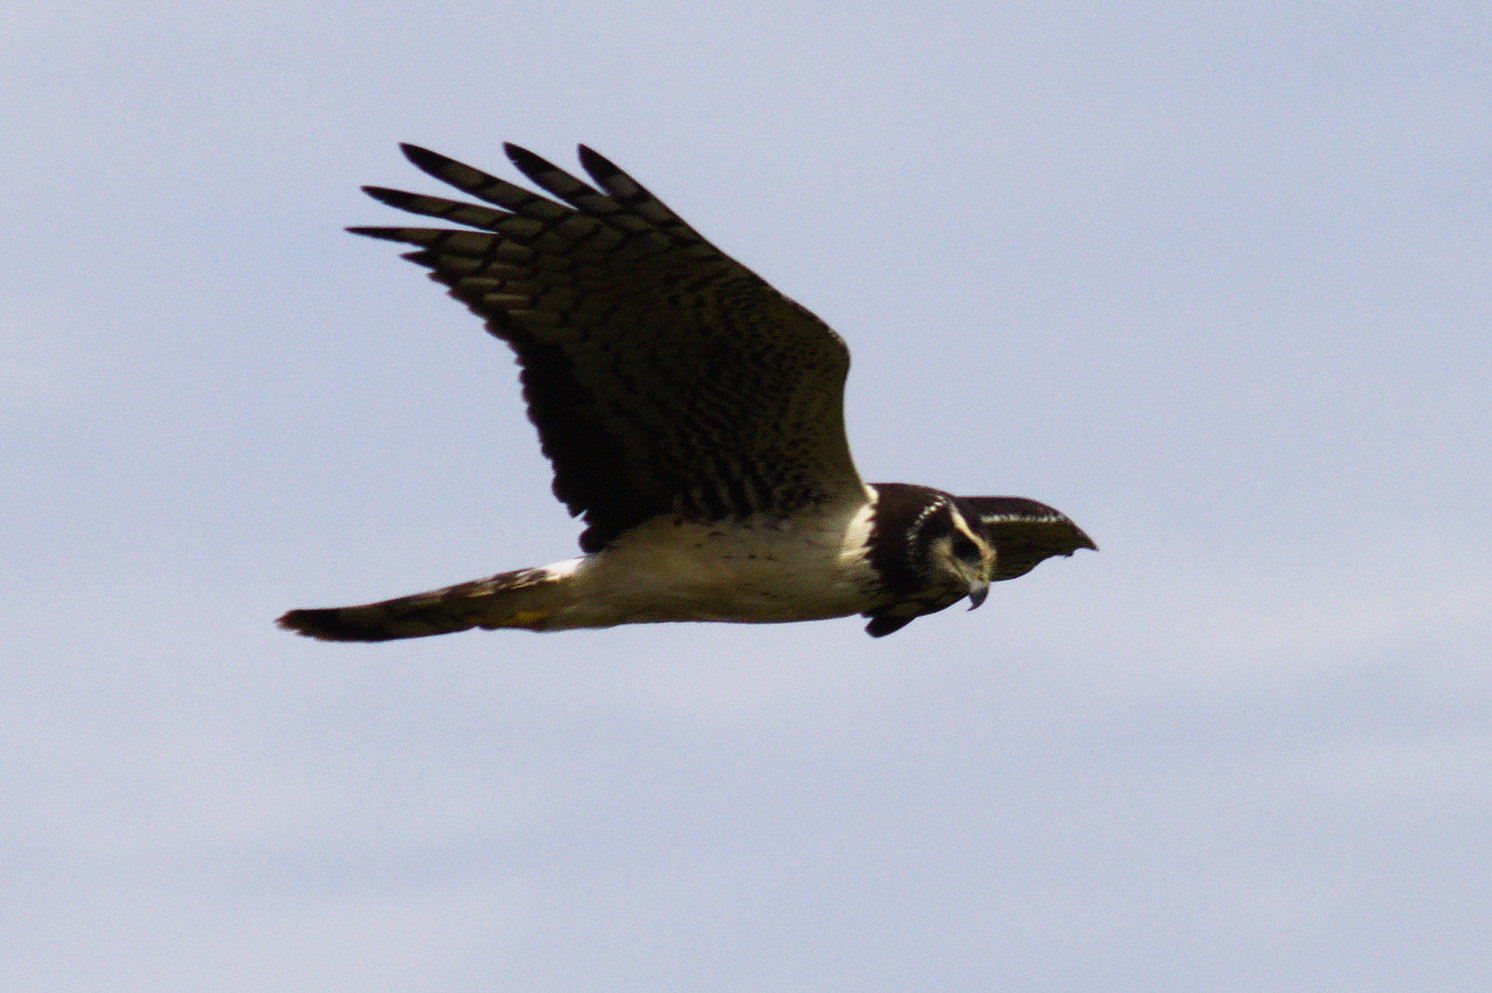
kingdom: Animalia
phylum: Chordata
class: Aves
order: Accipitriformes
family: Accipitridae
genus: Circus
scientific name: Circus buffoni
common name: Long-winged harrier
